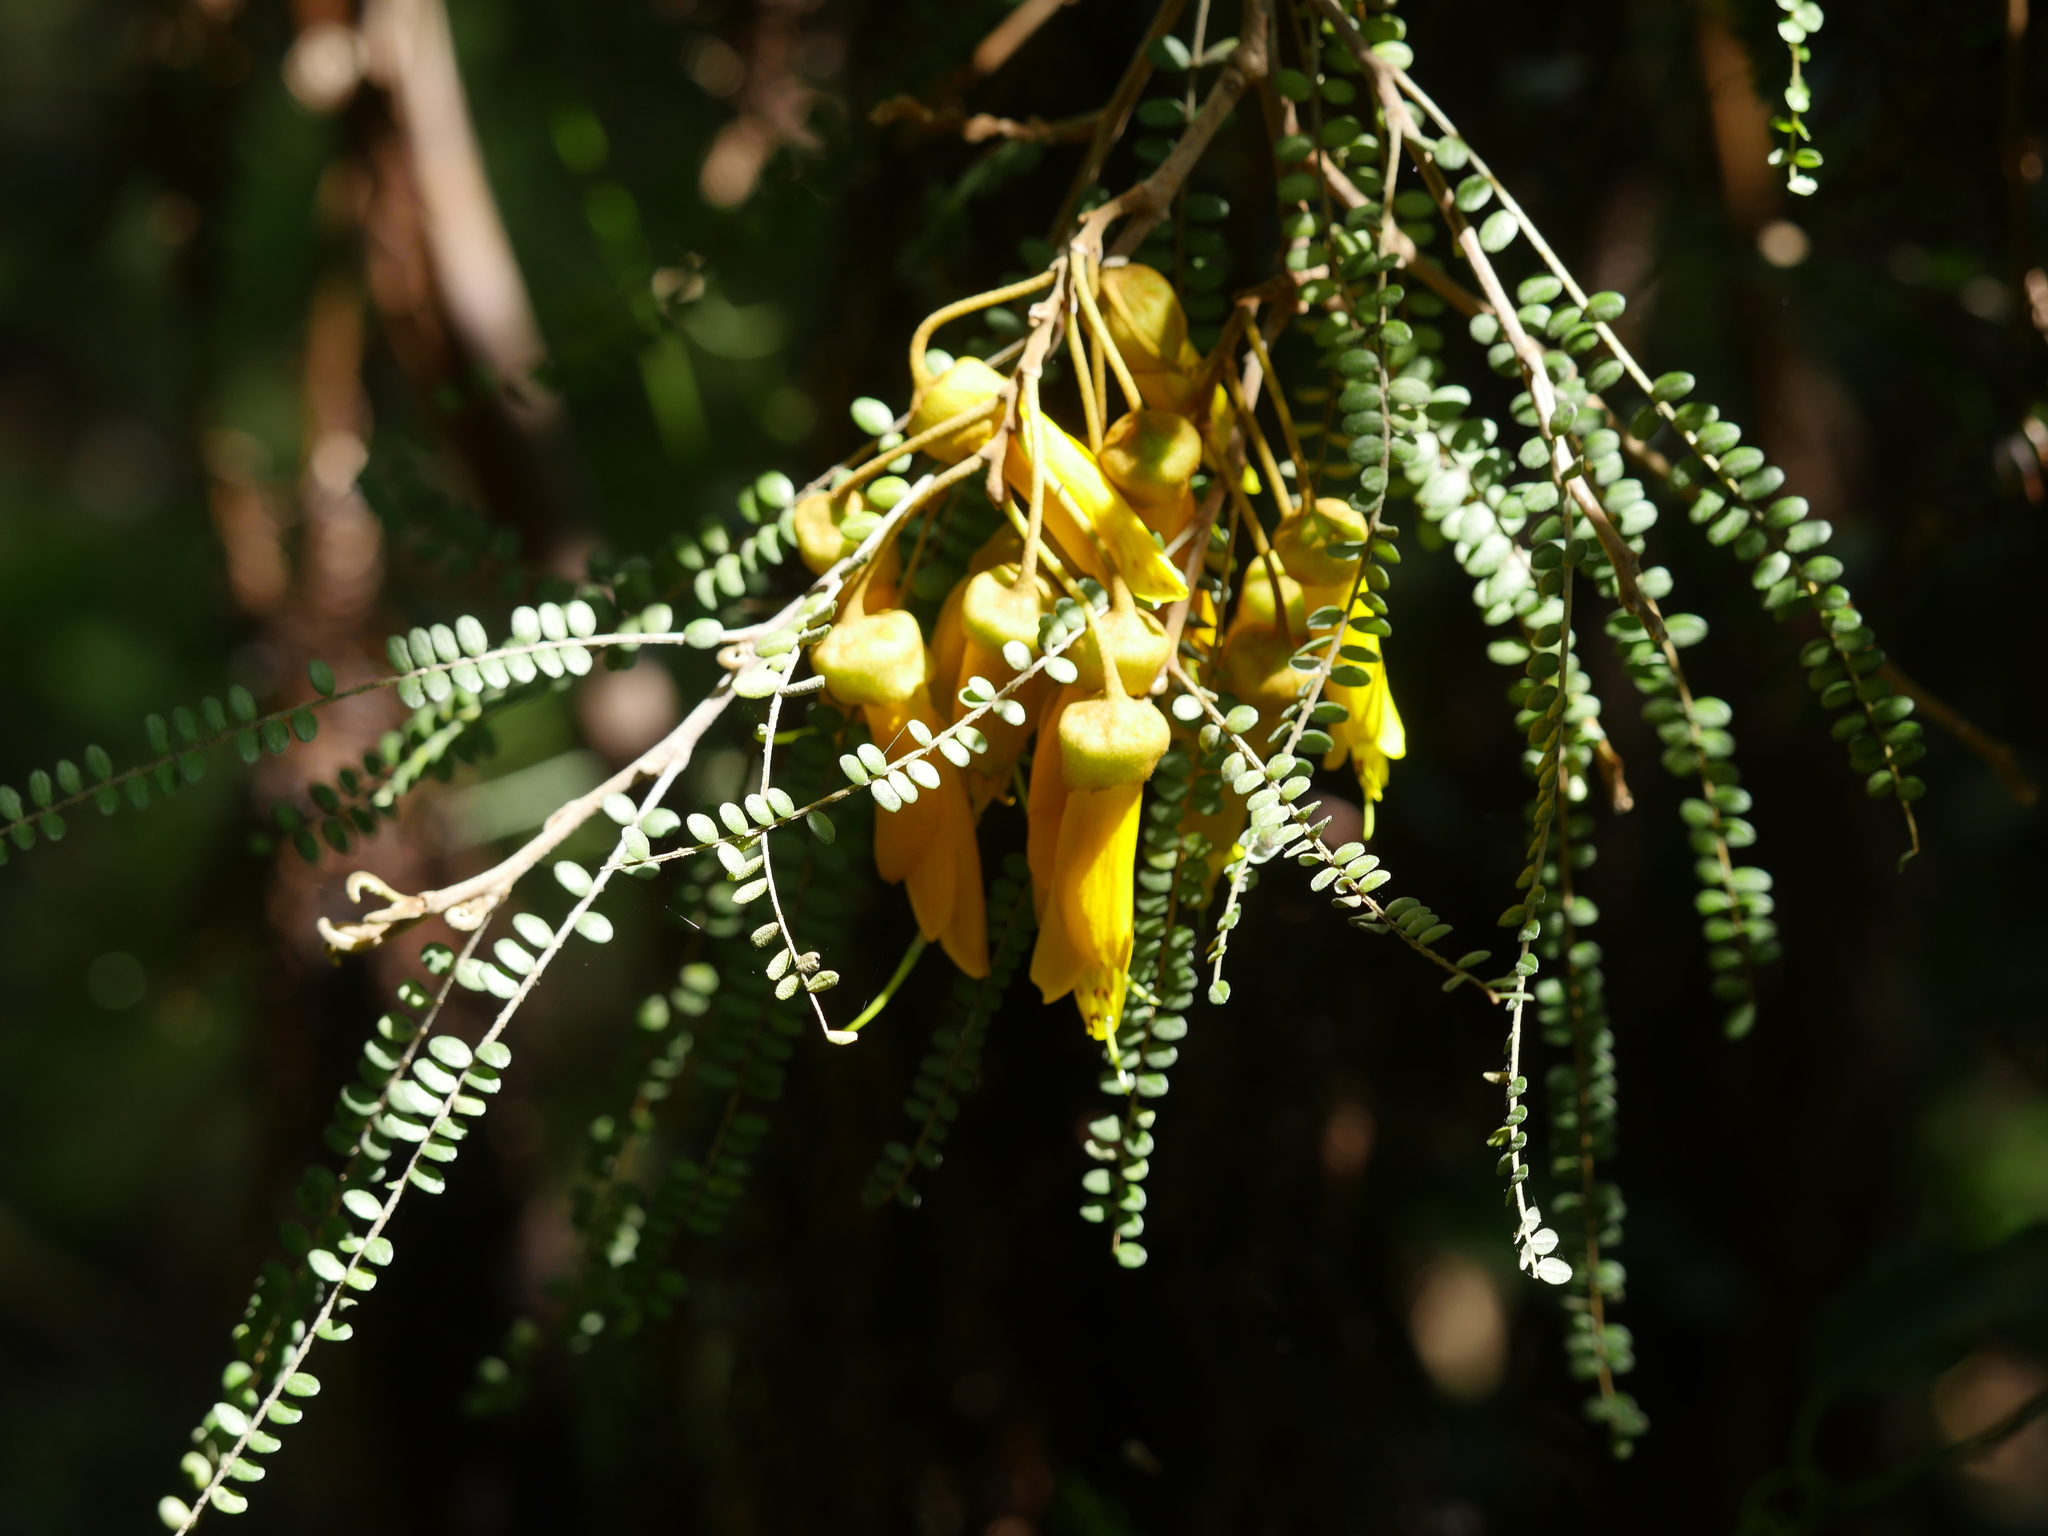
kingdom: Plantae
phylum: Tracheophyta
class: Magnoliopsida
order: Fabales
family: Fabaceae
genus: Sophora
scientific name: Sophora chathamica
